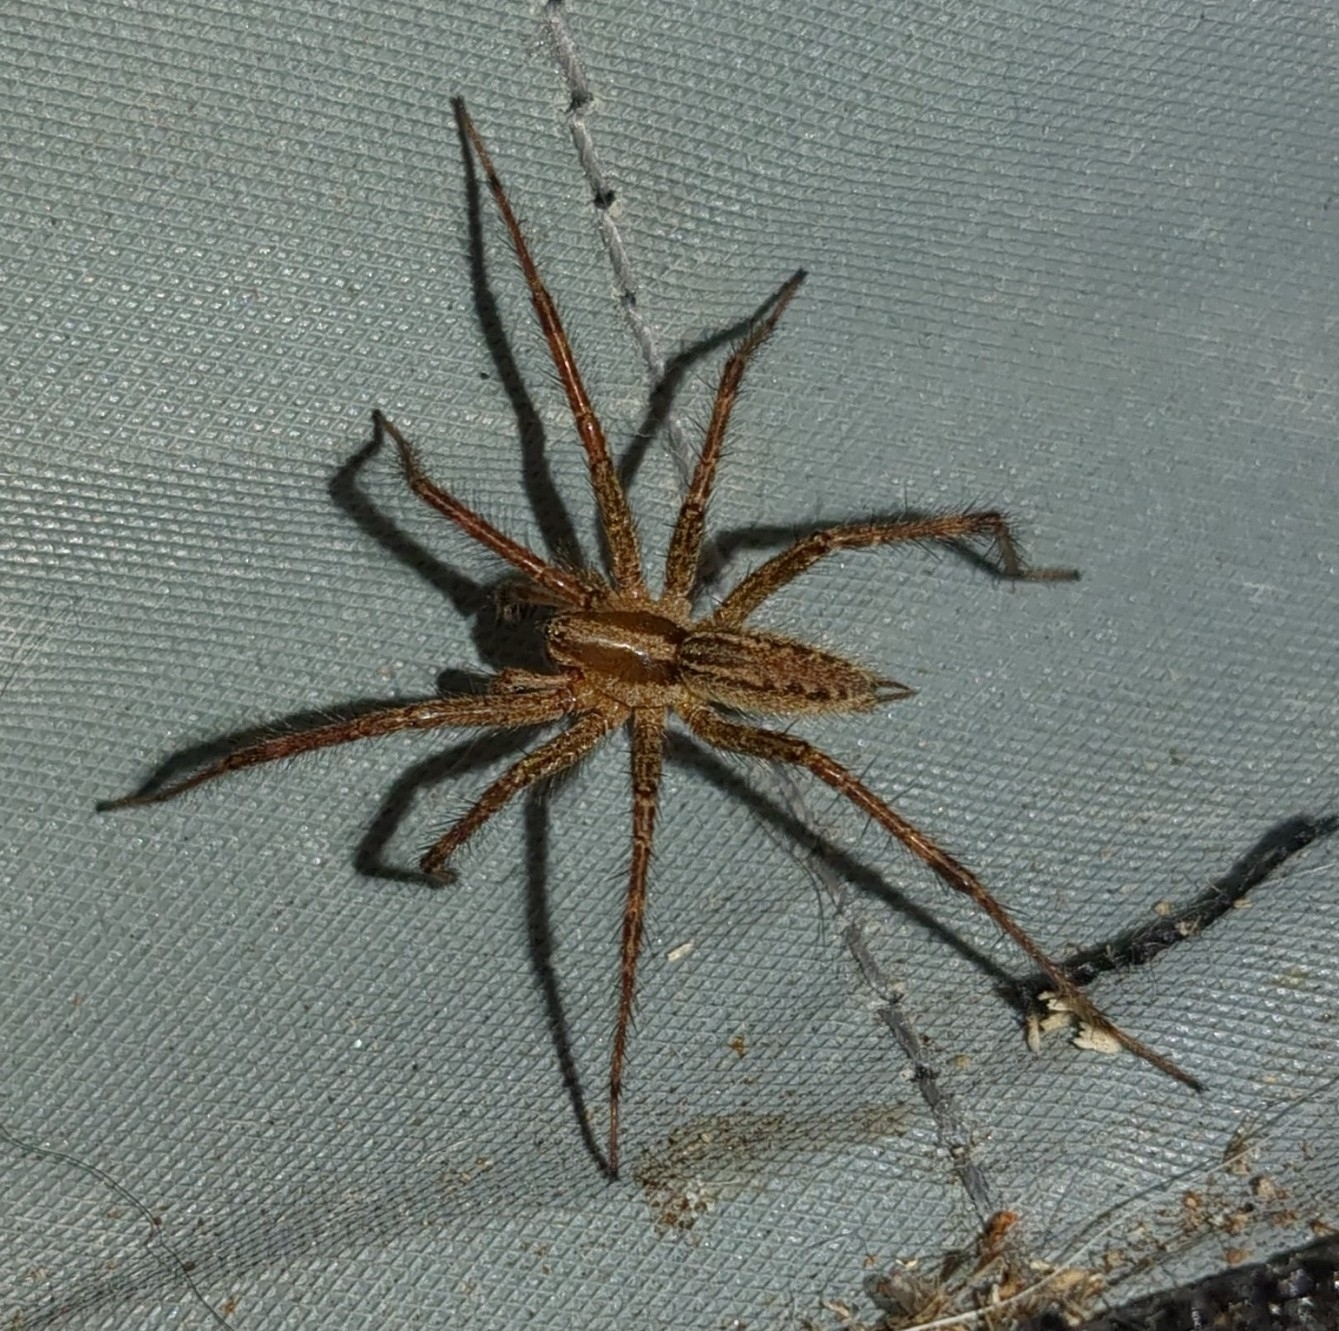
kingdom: Animalia
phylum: Arthropoda
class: Arachnida
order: Araneae
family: Agelenidae
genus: Agelenopsis
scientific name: Agelenopsis
